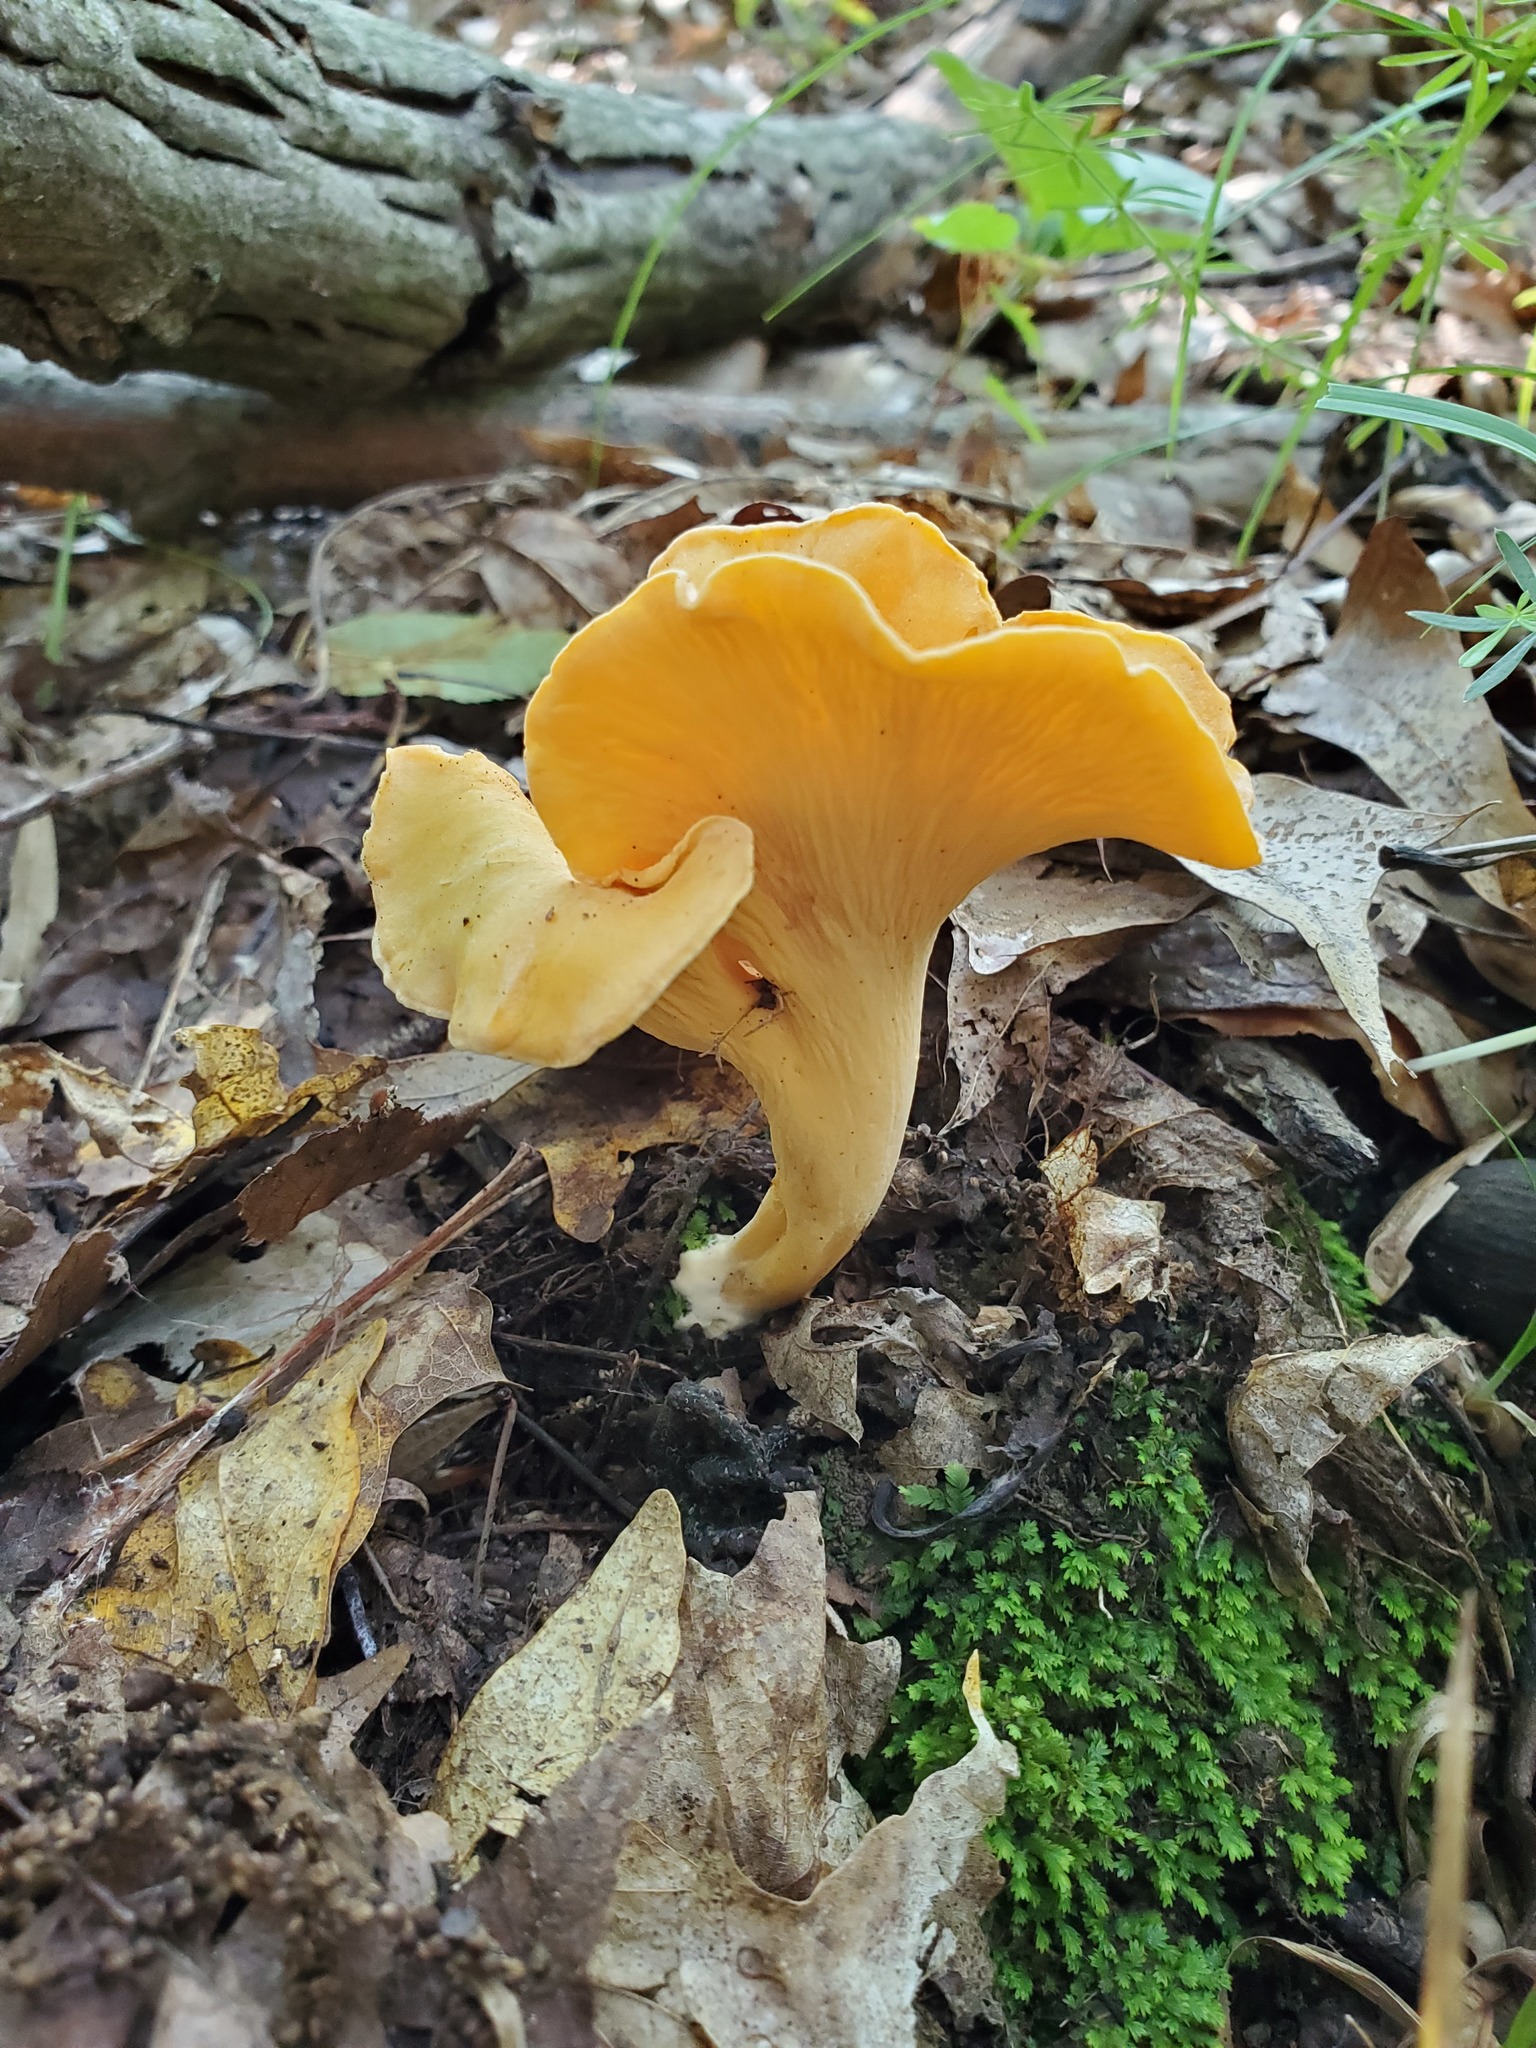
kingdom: Fungi
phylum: Basidiomycota
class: Agaricomycetes
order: Cantharellales
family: Hydnaceae
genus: Cantharellus
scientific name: Cantharellus flavolateritius
